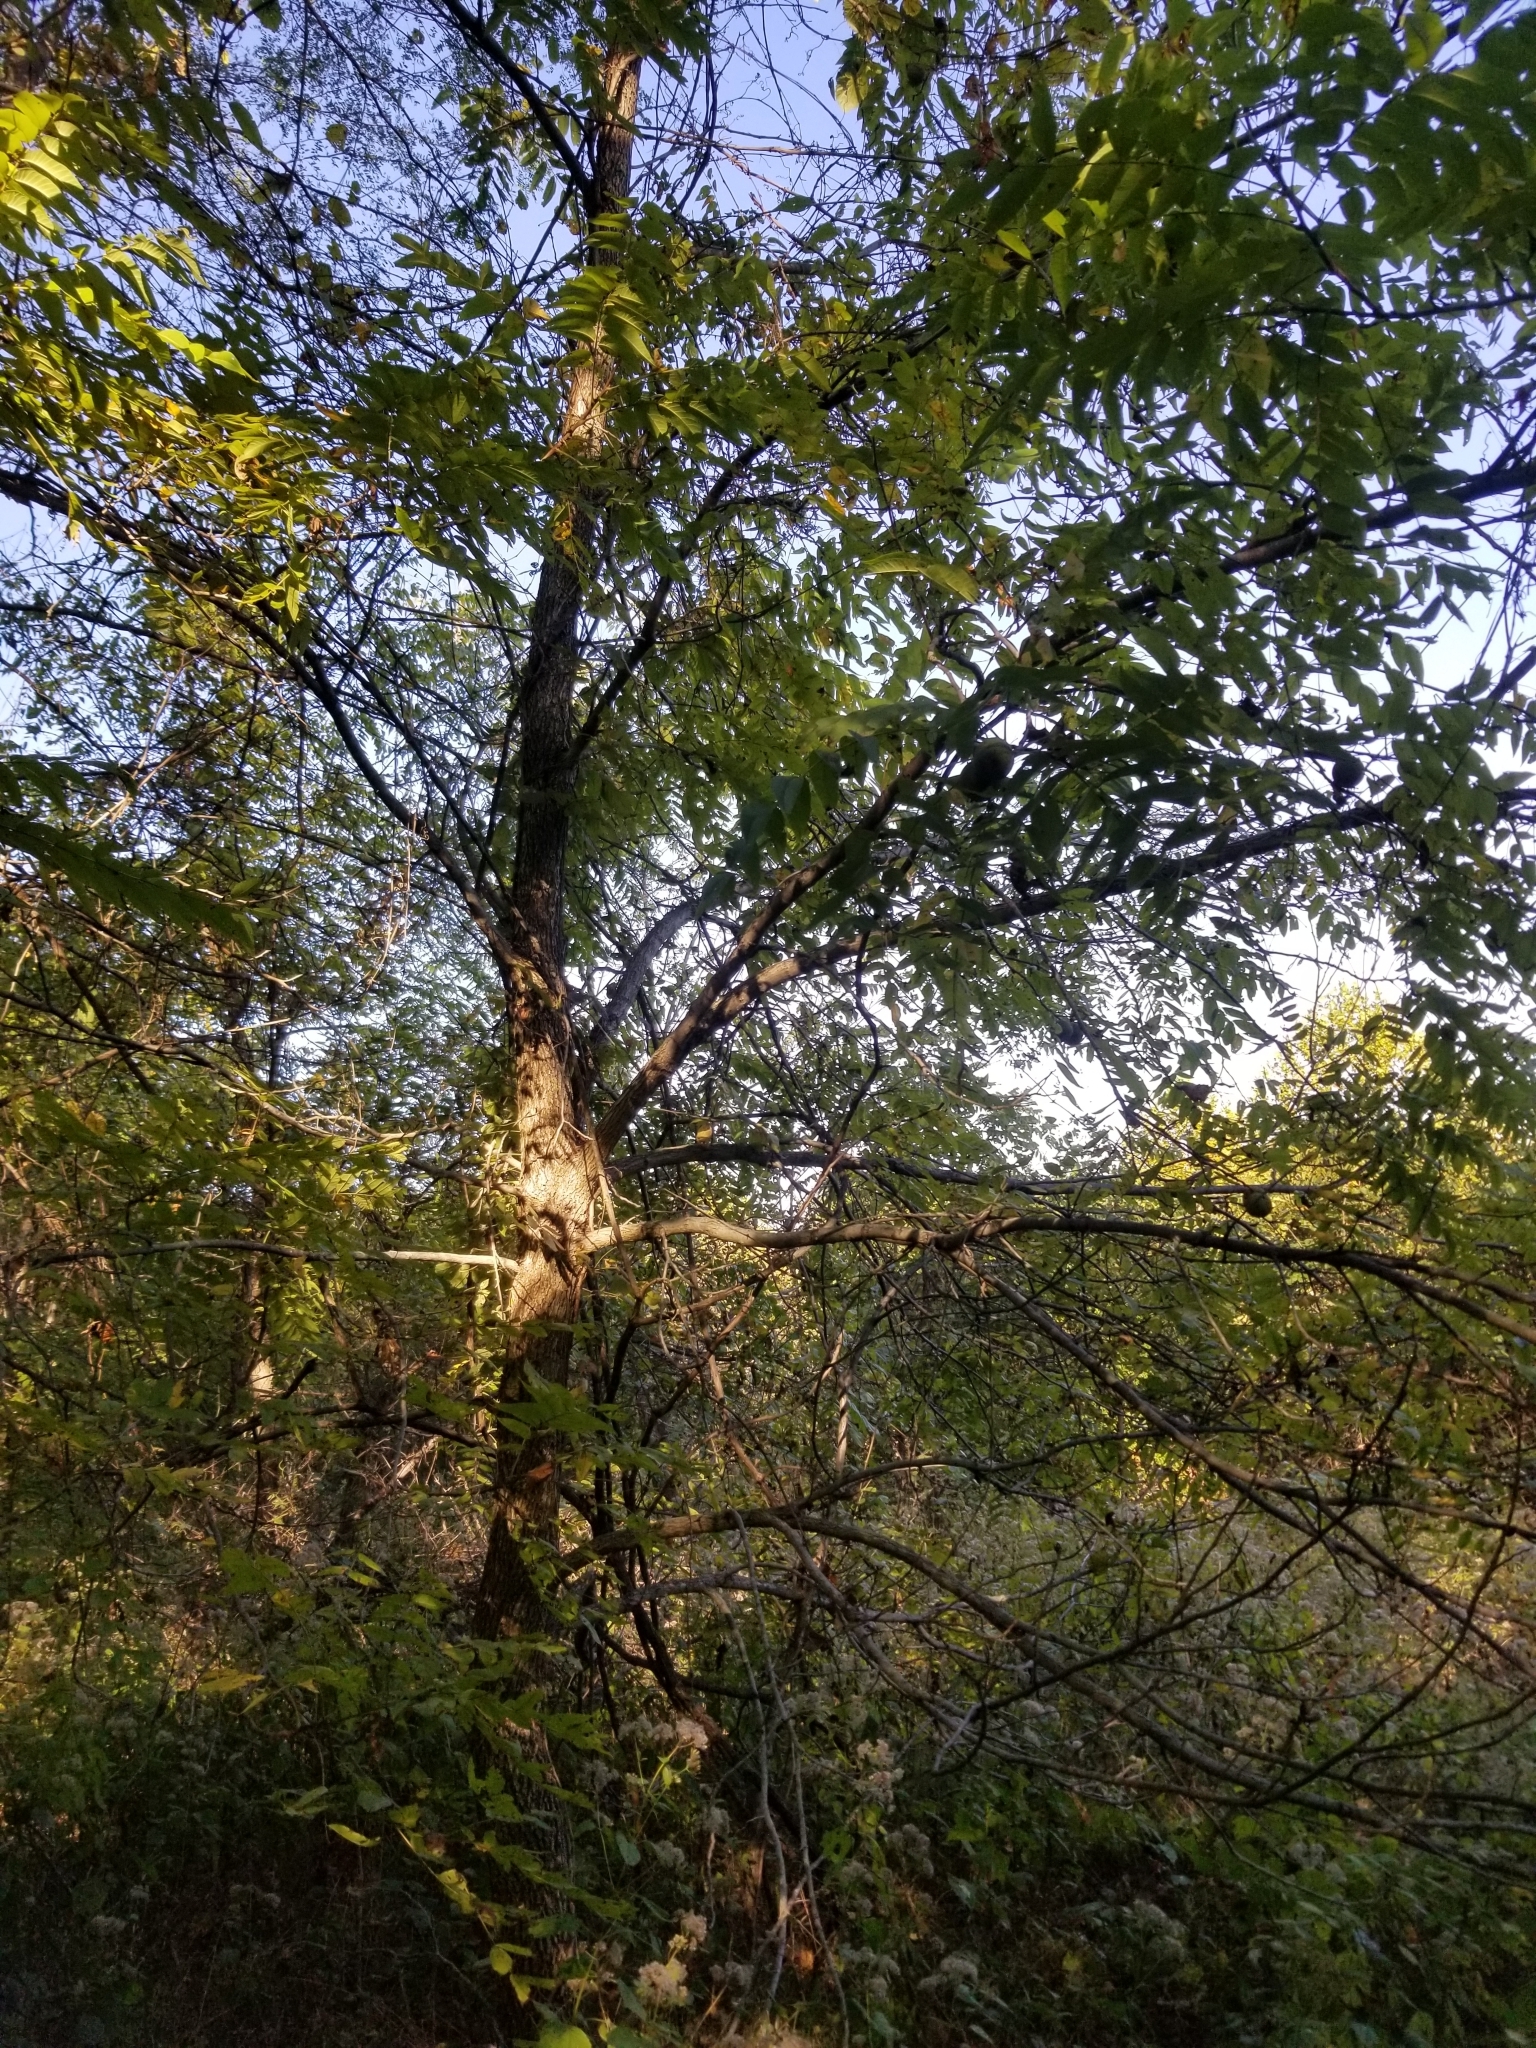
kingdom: Plantae
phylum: Tracheophyta
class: Magnoliopsida
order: Fagales
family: Juglandaceae
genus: Juglans
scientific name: Juglans nigra
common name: Black walnut
